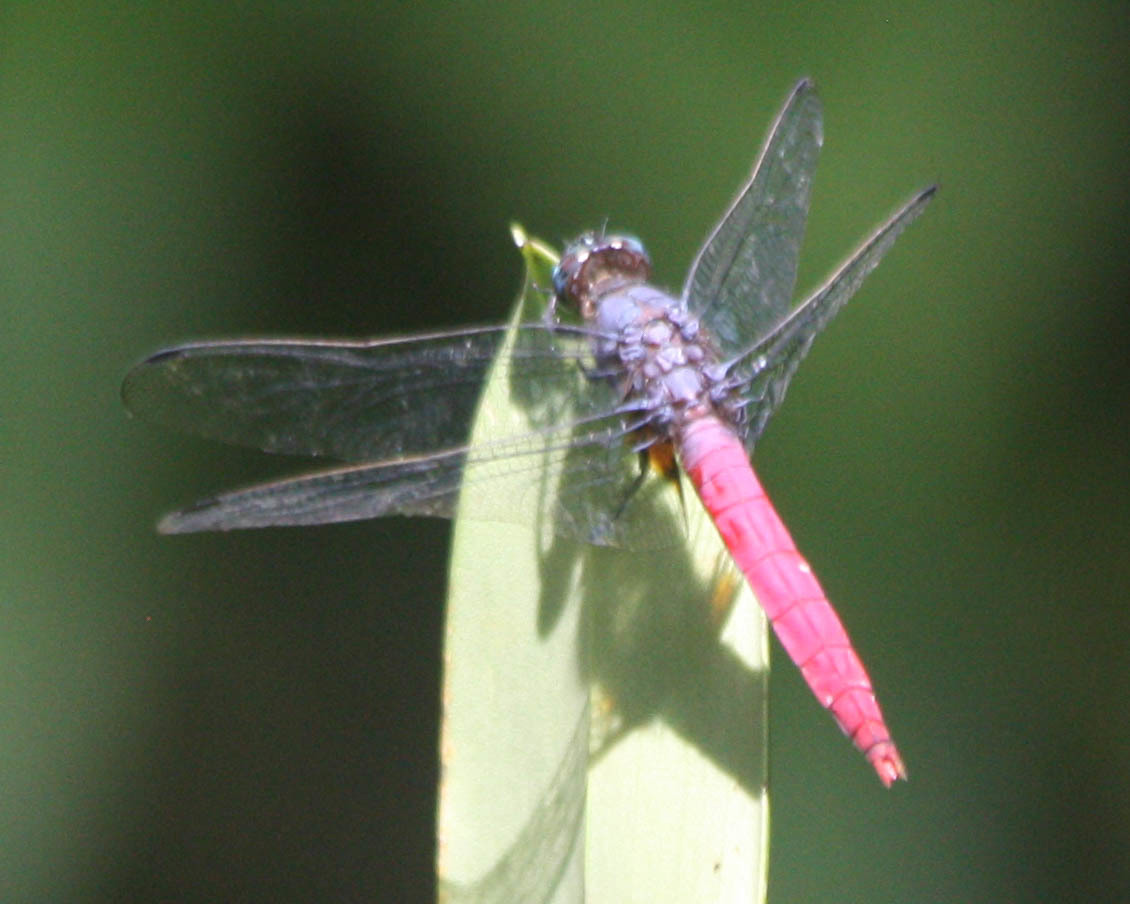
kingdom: Animalia
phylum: Arthropoda
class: Insecta
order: Odonata
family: Libellulidae
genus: Orthetrum
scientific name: Orthetrum pruinosum
